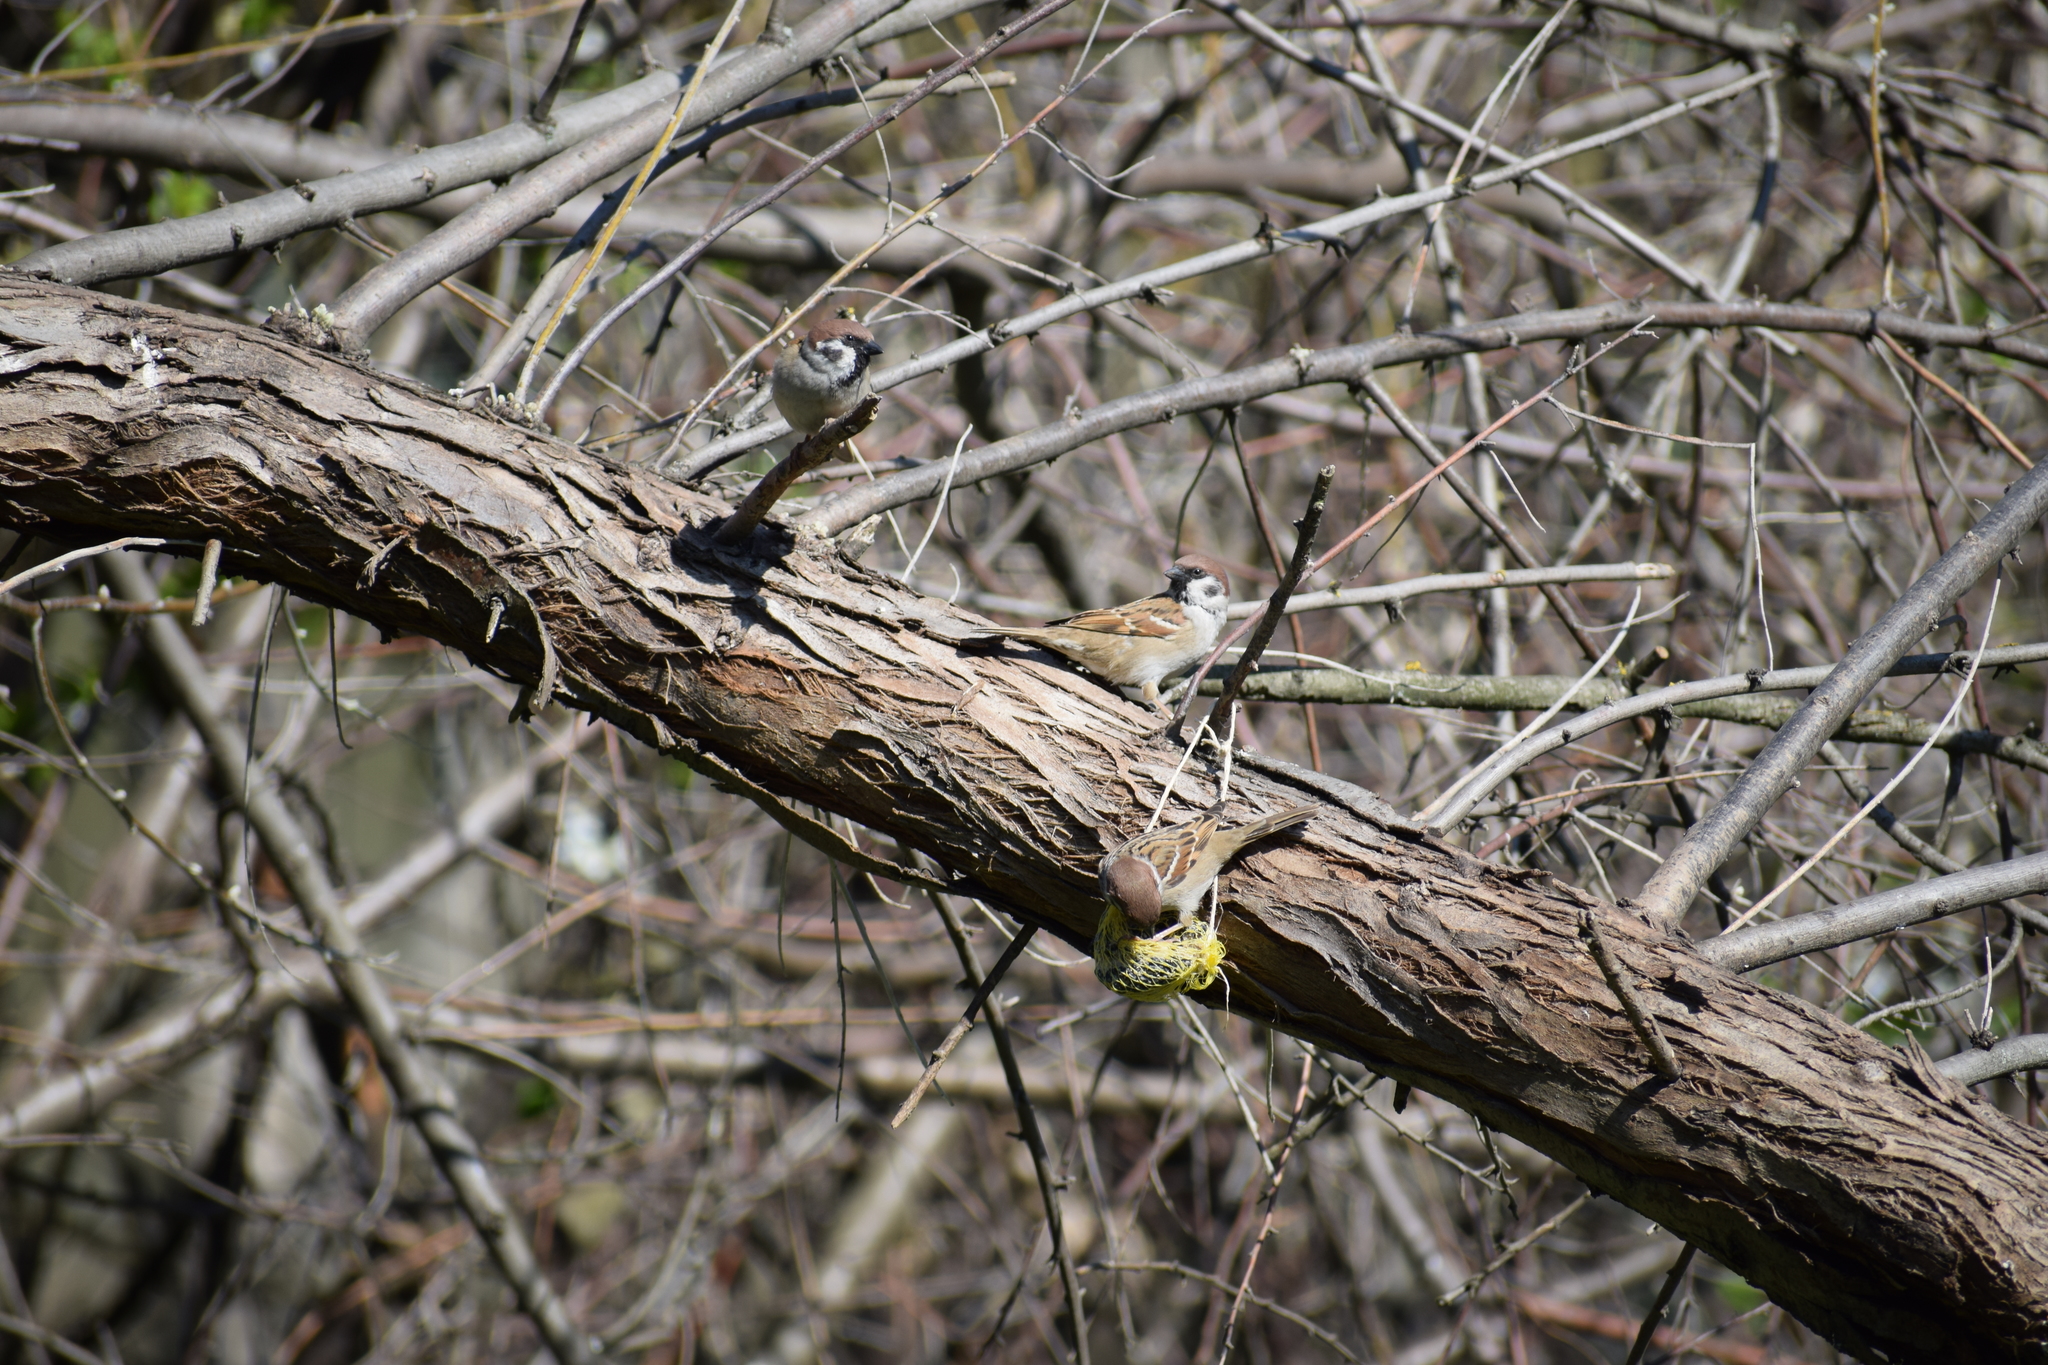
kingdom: Animalia
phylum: Chordata
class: Aves
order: Passeriformes
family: Passeridae
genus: Passer
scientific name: Passer montanus
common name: Eurasian tree sparrow
